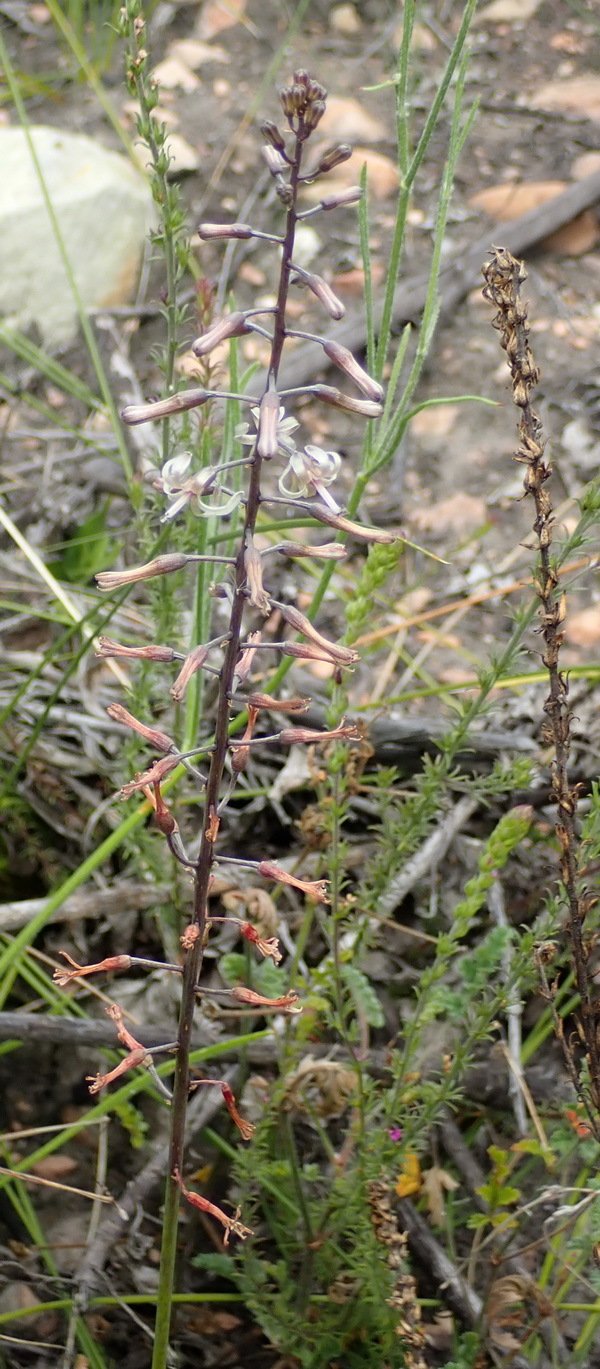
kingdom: Plantae
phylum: Tracheophyta
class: Liliopsida
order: Asparagales
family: Asparagaceae
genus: Drimia
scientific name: Drimia media
